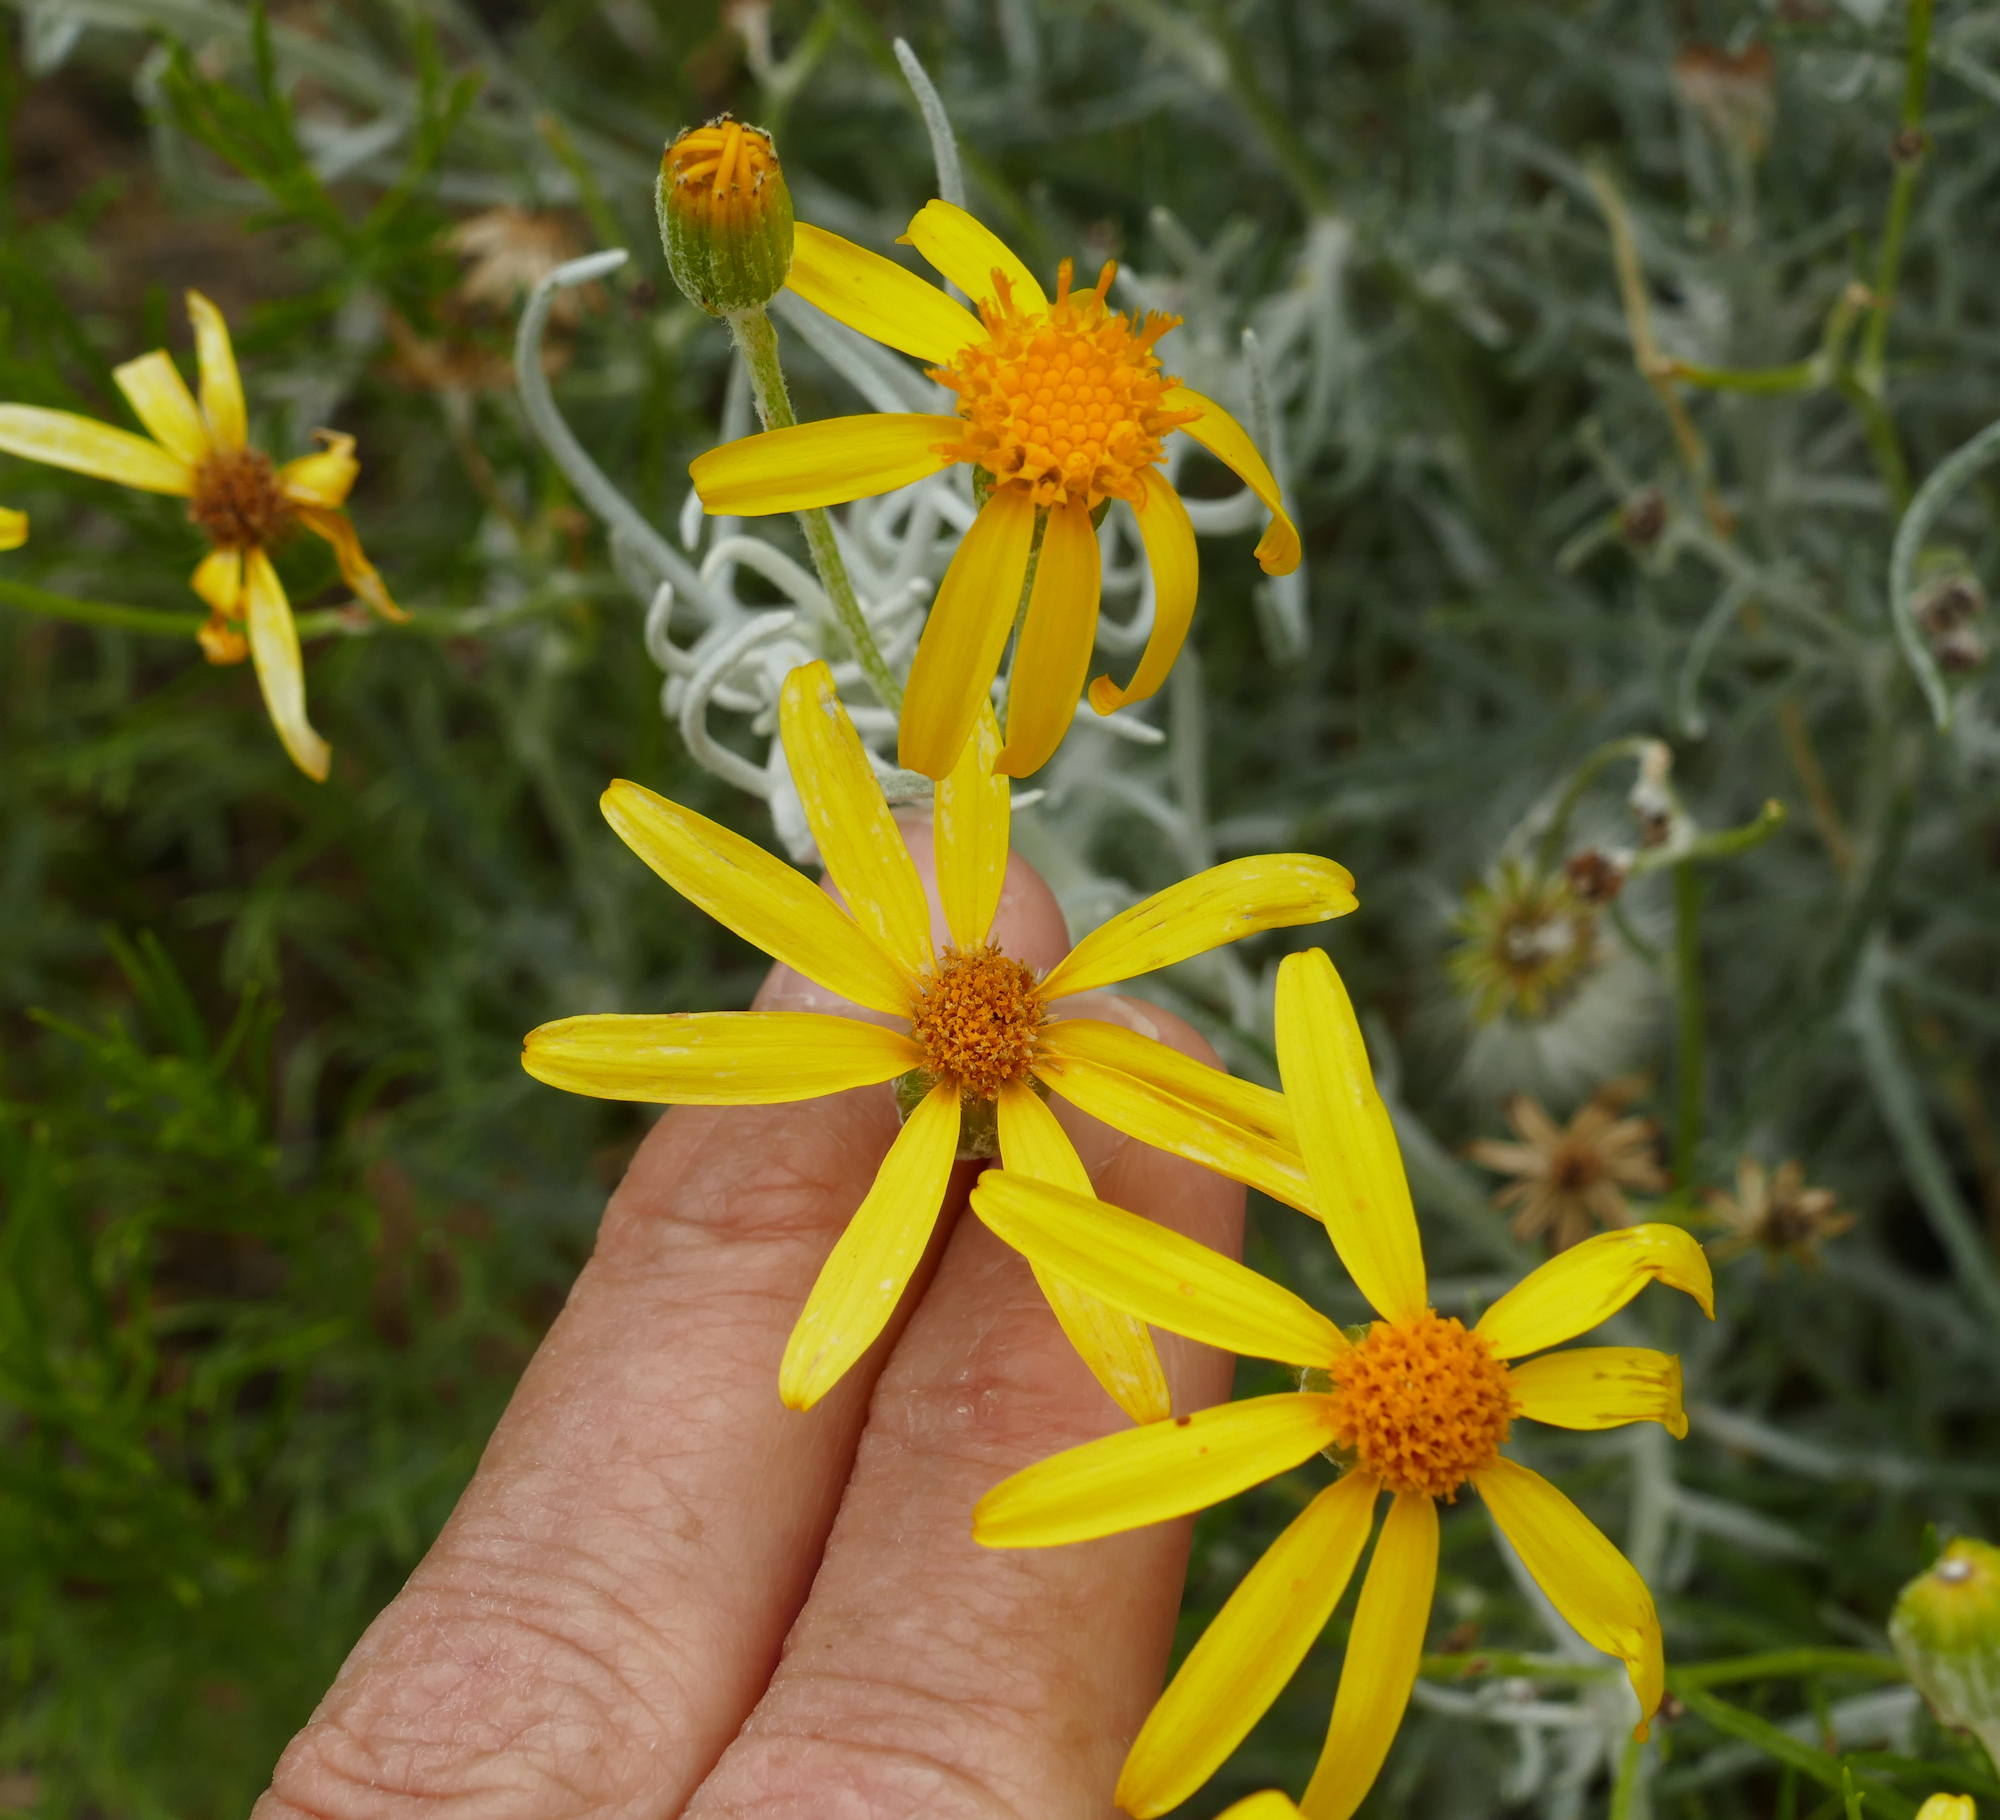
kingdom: Plantae
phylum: Tracheophyta
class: Magnoliopsida
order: Asterales
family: Asteraceae
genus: Senecio
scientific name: Senecio flaccidus
